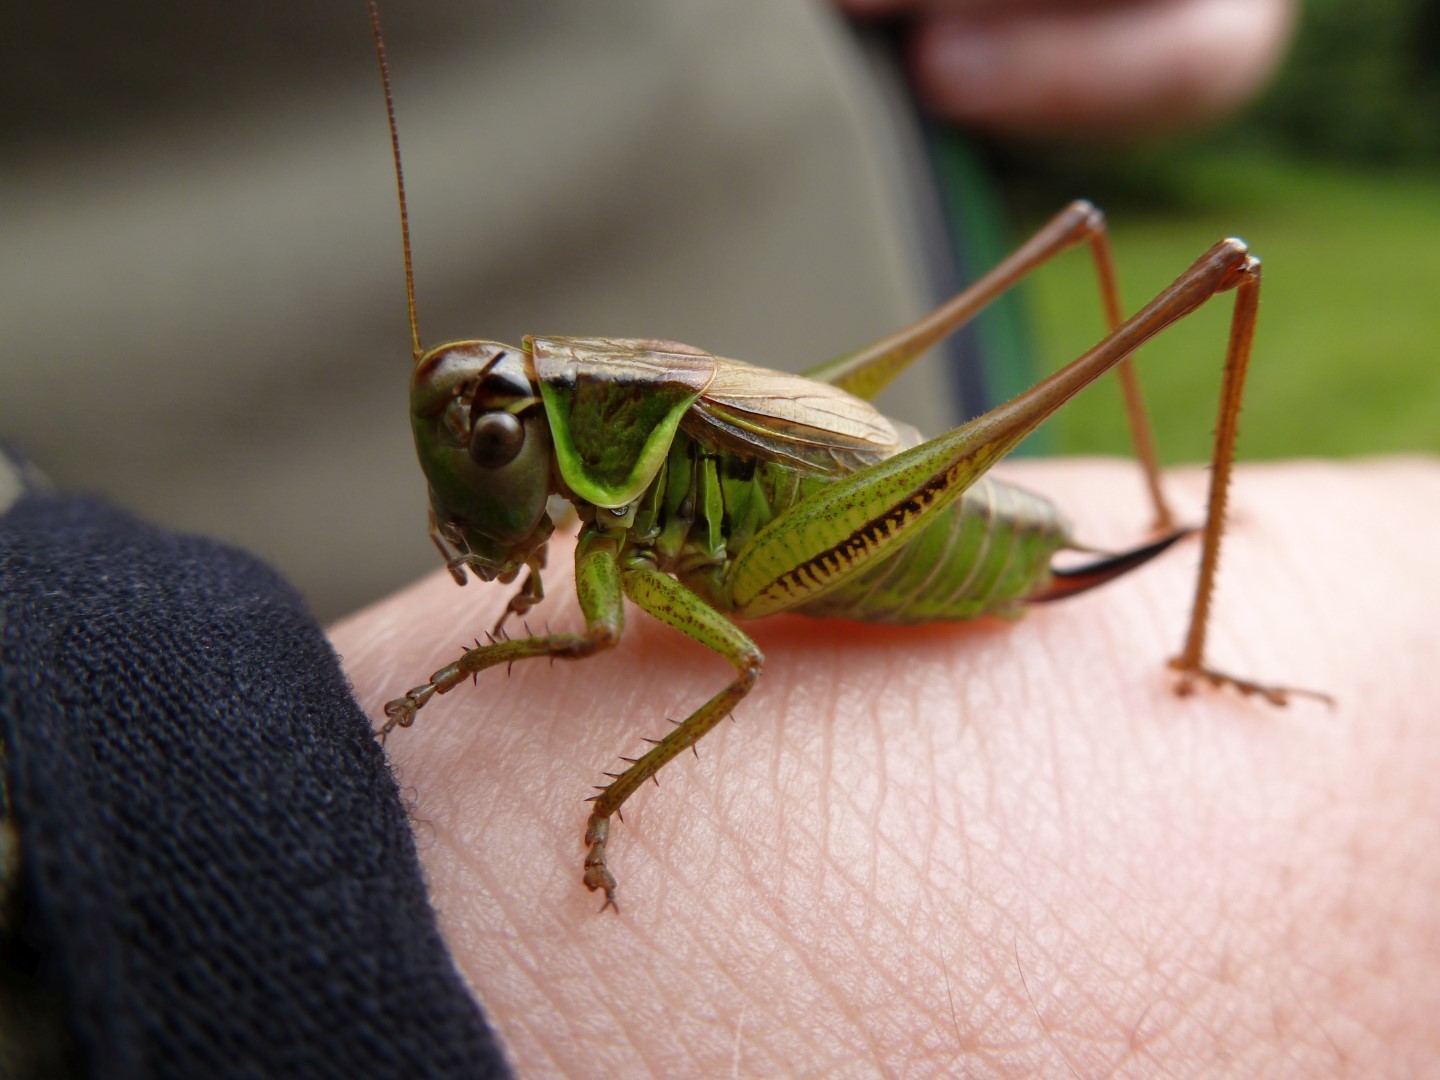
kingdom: Animalia
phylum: Arthropoda
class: Insecta
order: Orthoptera
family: Tettigoniidae
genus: Roeseliana
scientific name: Roeseliana roeselii
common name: Roesel's bush cricket
